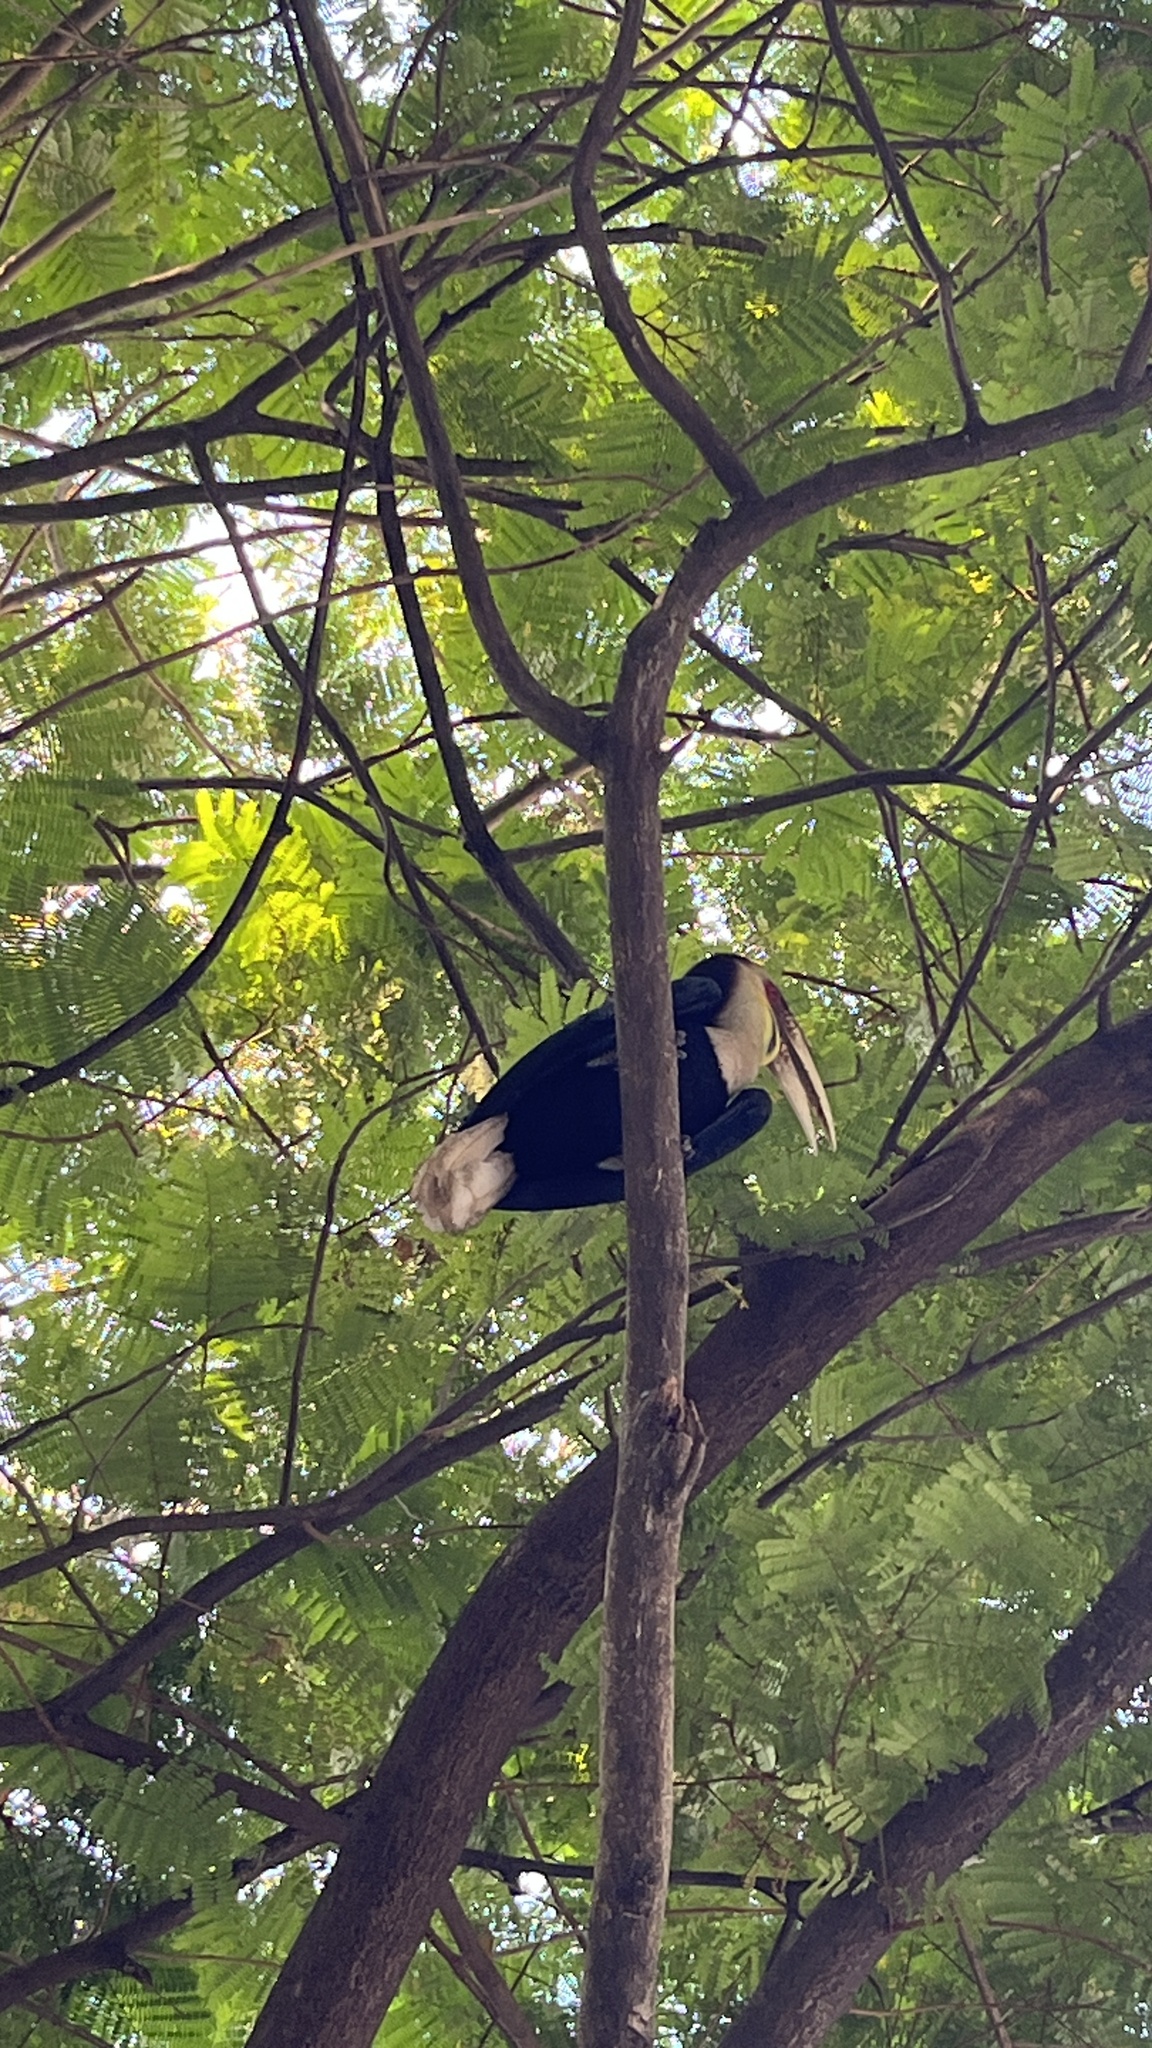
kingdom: Animalia
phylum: Chordata
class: Aves
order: Bucerotiformes
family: Bucerotidae
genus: Rhyticeros
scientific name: Rhyticeros undulatus
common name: Wreathed hornbill
